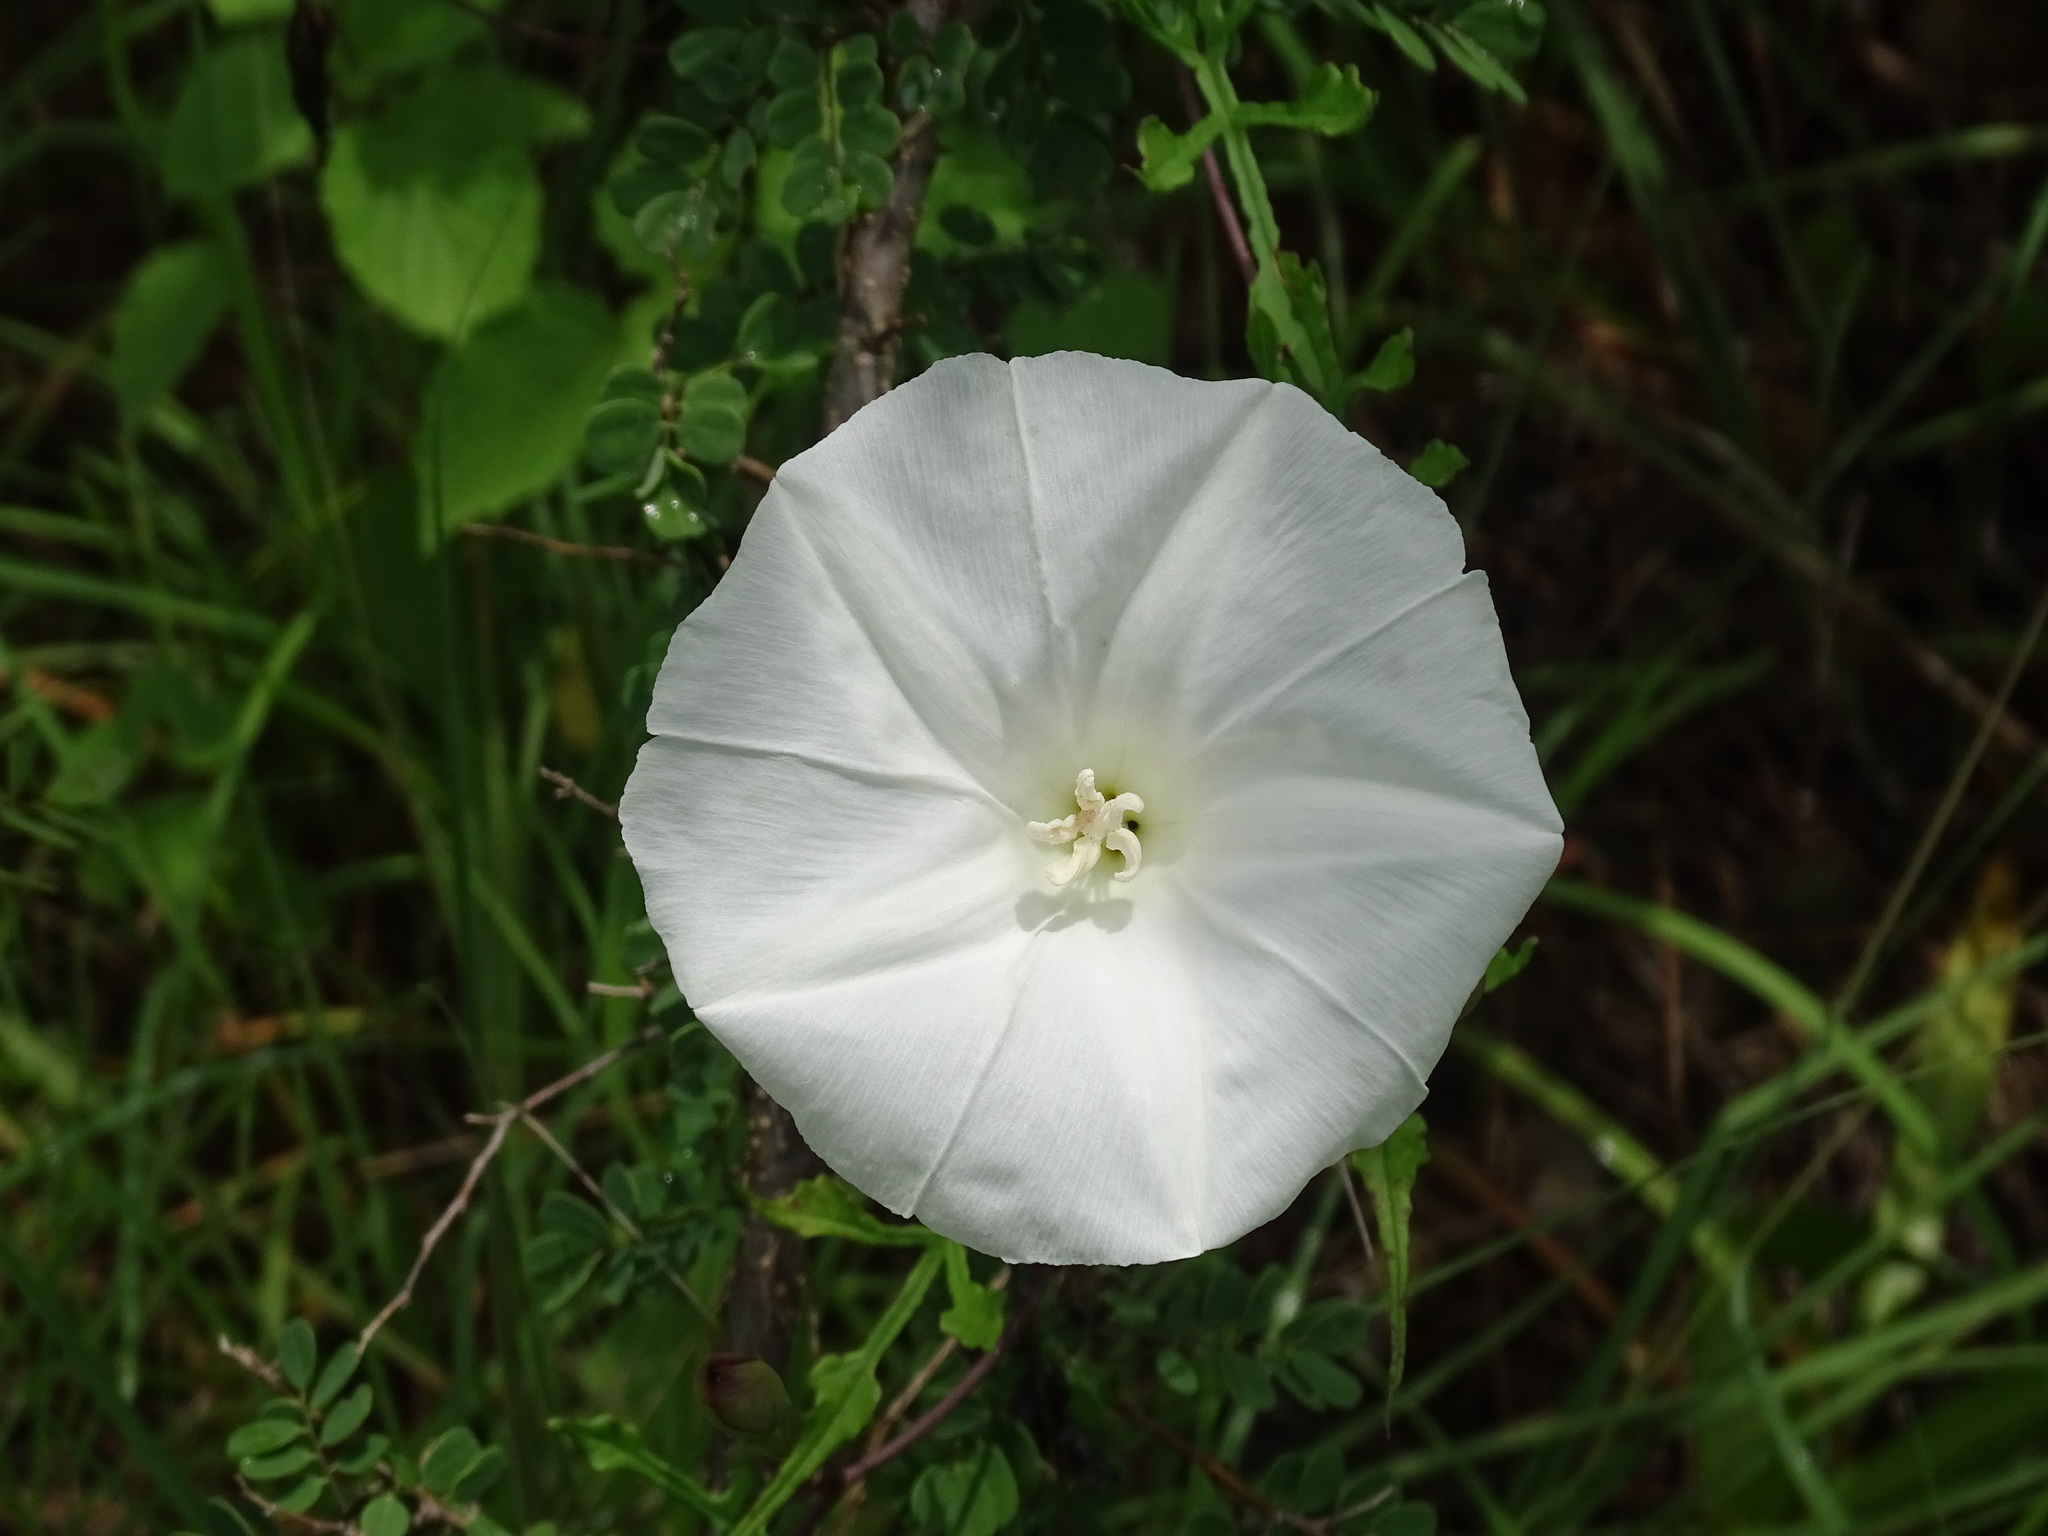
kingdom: Plantae
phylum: Tracheophyta
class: Magnoliopsida
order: Solanales
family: Convolvulaceae
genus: Operculina
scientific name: Operculina pinnatifida
